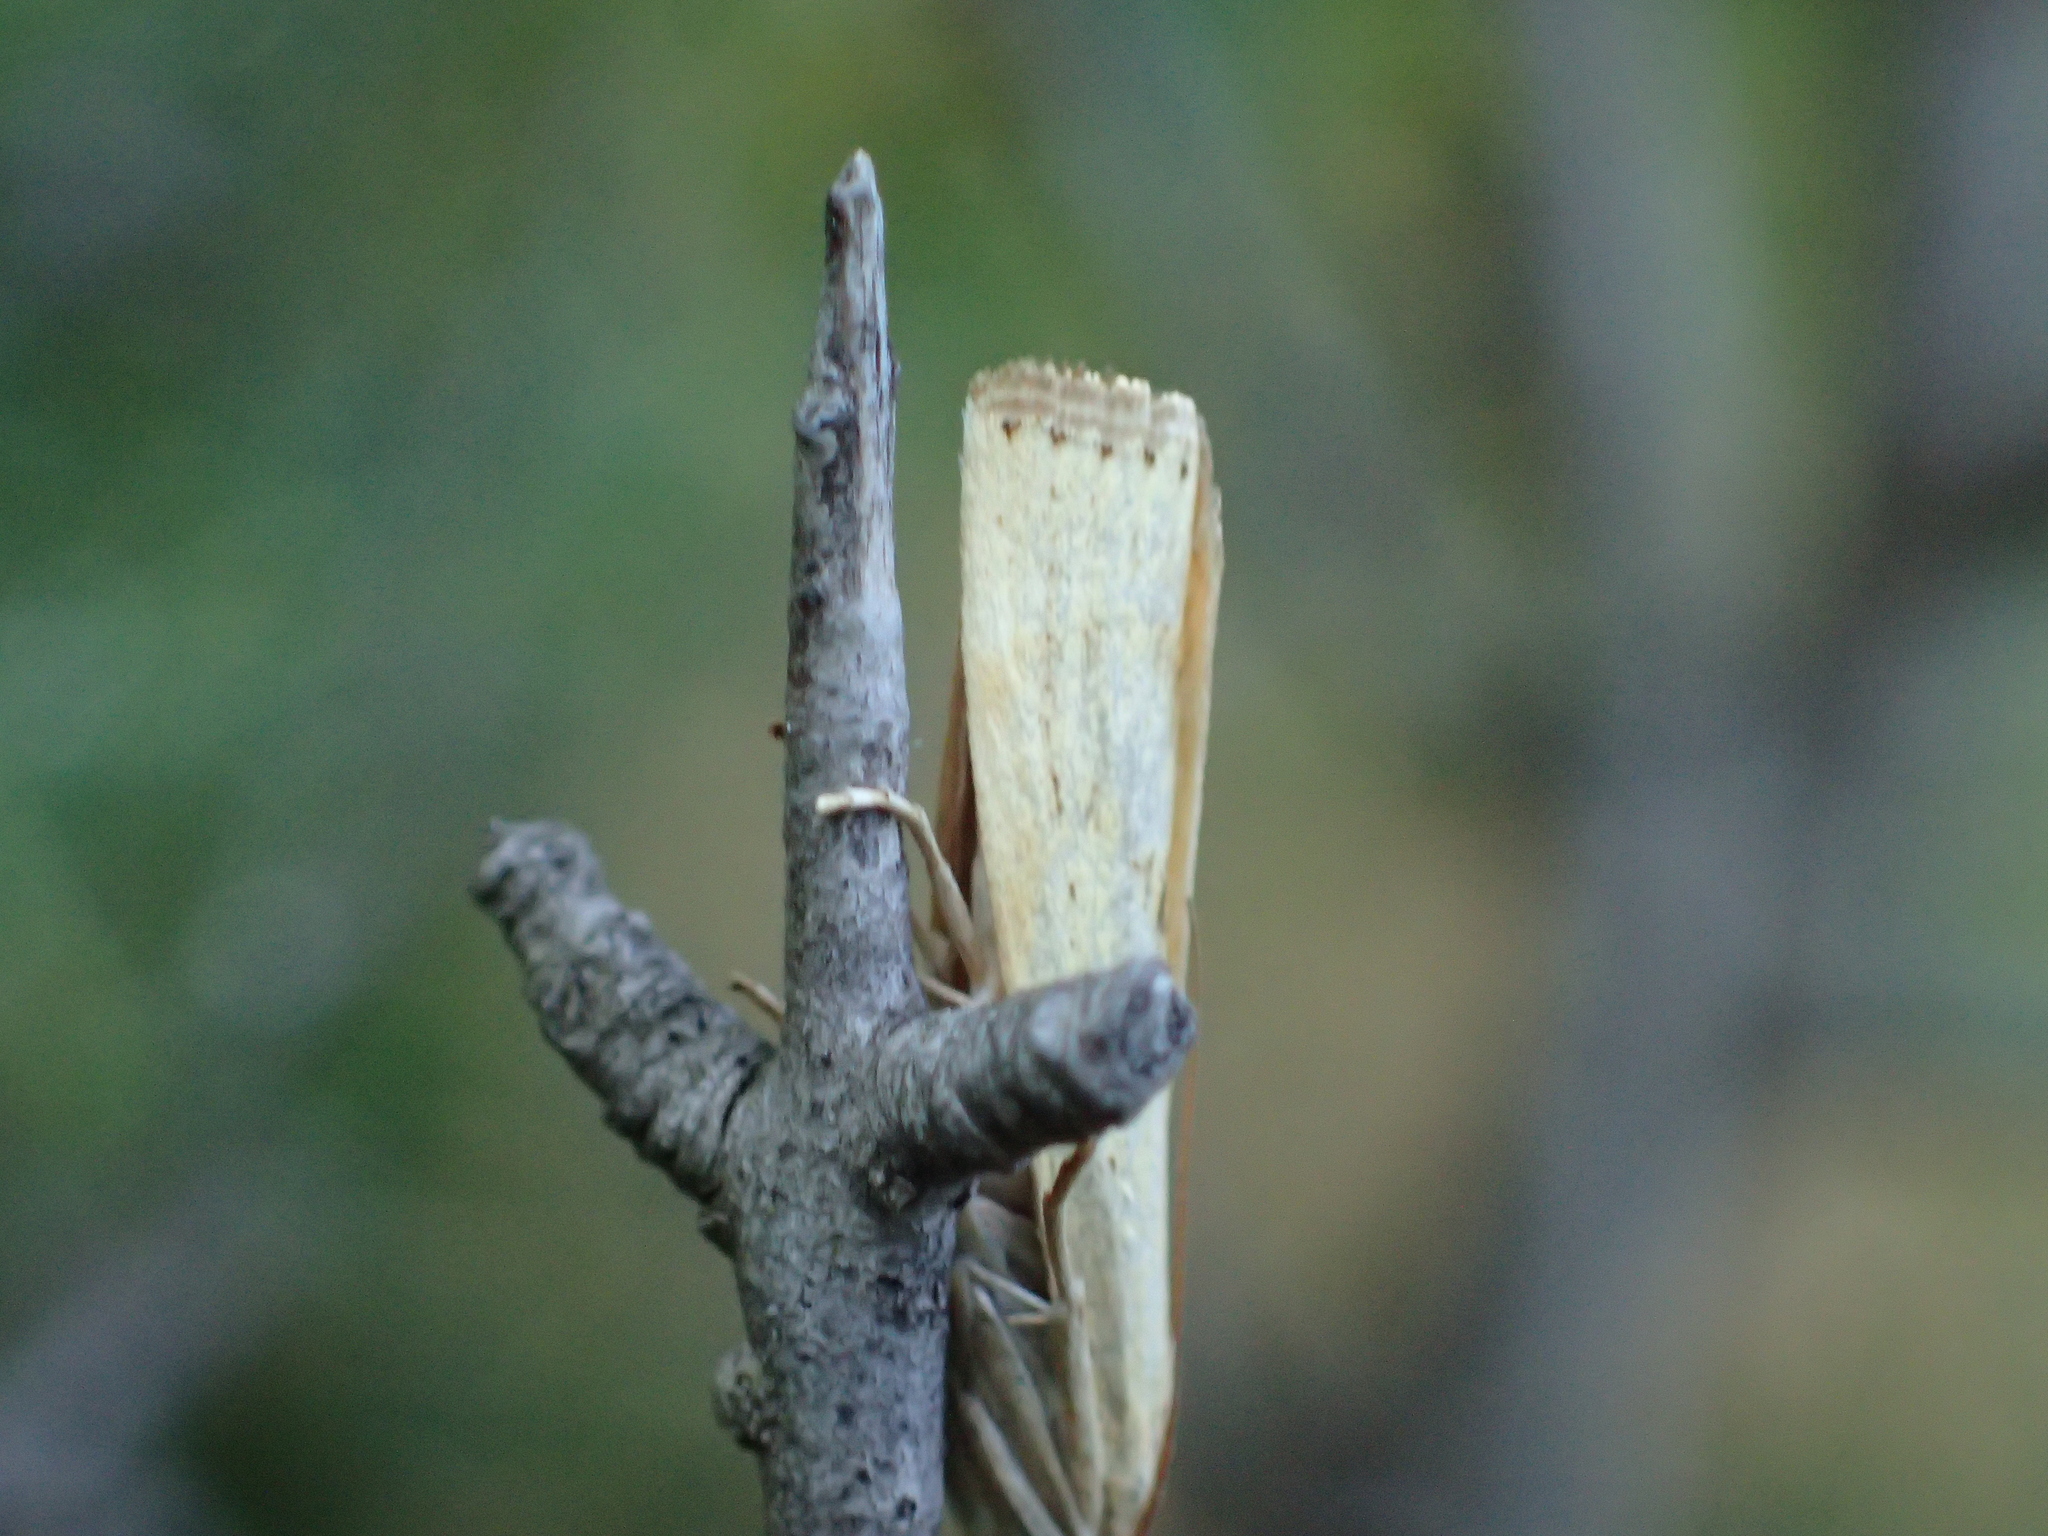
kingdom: Animalia
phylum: Arthropoda
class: Insecta
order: Lepidoptera
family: Crambidae
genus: Agriphila
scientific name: Agriphila inquinatella
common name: Barred grass-veneer
